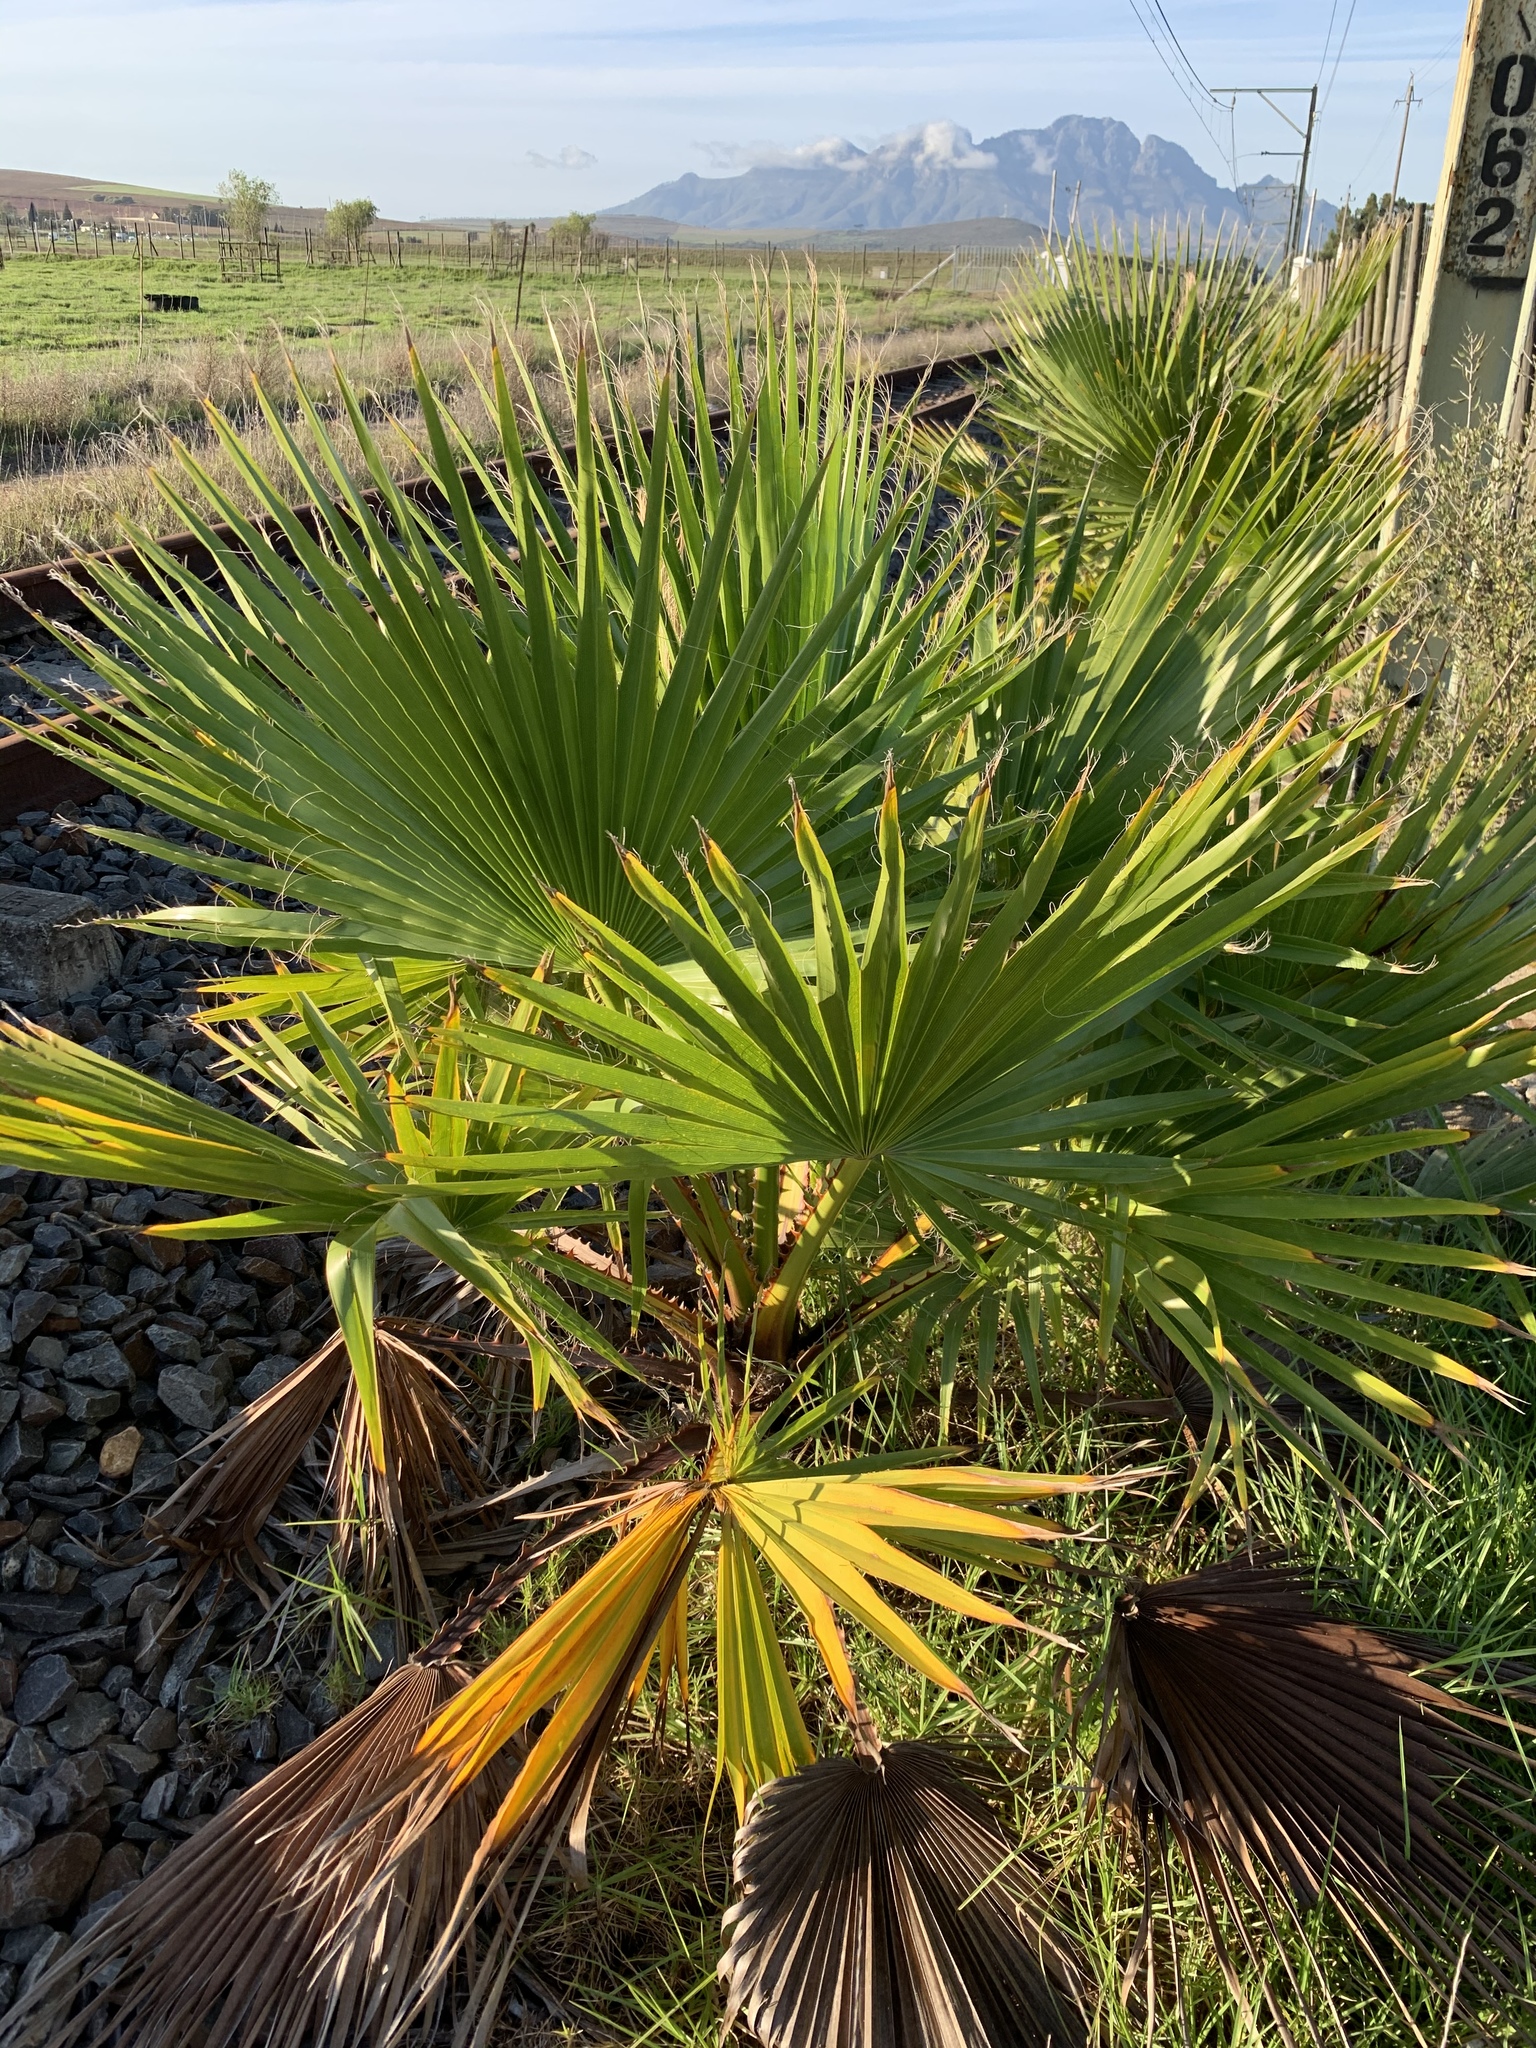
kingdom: Plantae
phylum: Tracheophyta
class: Liliopsida
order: Arecales
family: Arecaceae
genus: Washingtonia
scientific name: Washingtonia robusta
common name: Mexican fan palm
